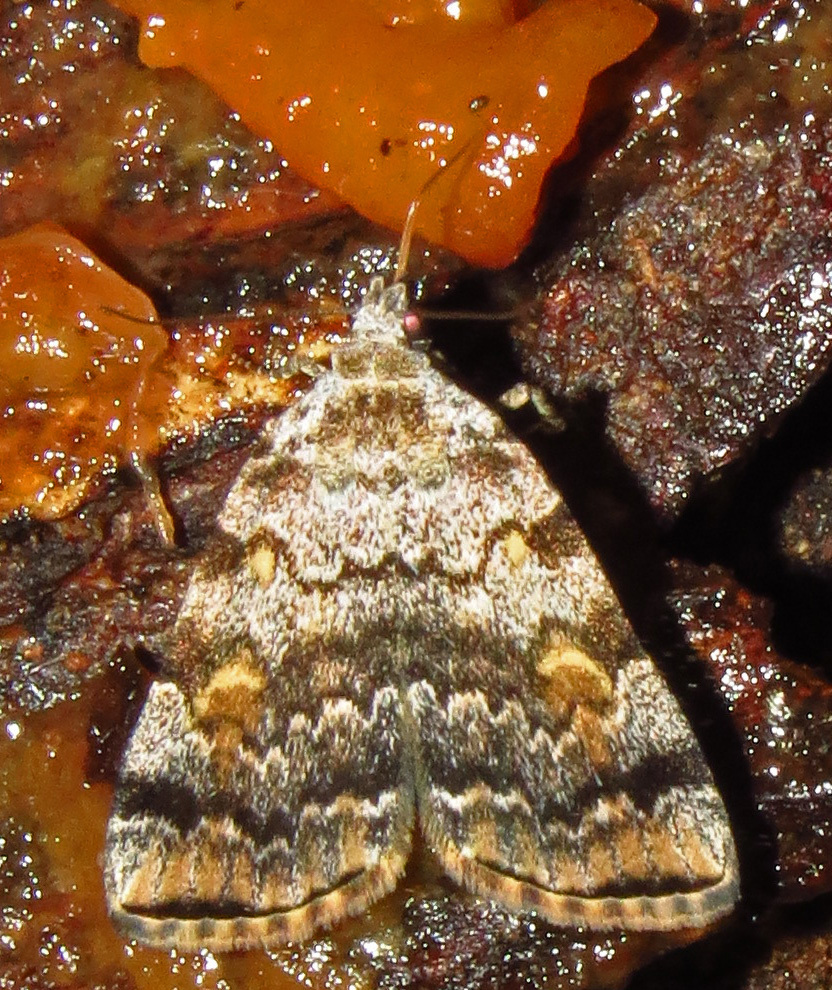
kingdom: Animalia
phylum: Arthropoda
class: Insecta
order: Lepidoptera
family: Erebidae
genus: Idia
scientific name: Idia americalis
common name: American idia moth
